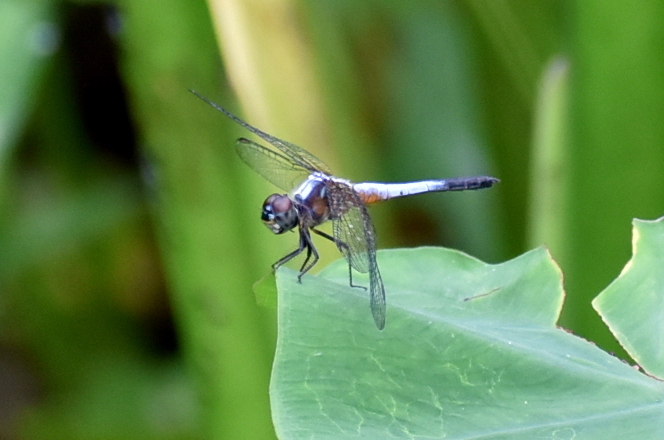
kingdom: Animalia
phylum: Arthropoda
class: Insecta
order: Odonata
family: Libellulidae
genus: Brachydiplax
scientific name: Brachydiplax chalybea
